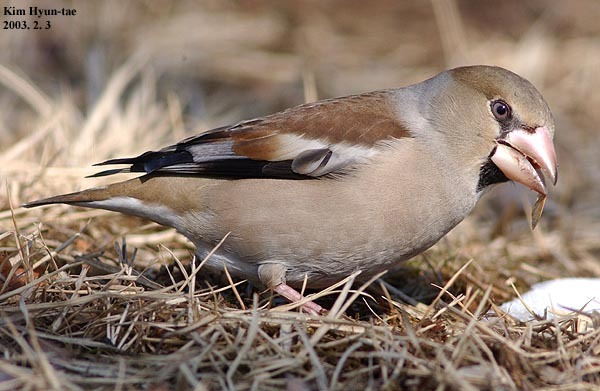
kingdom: Animalia
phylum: Chordata
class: Aves
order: Passeriformes
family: Fringillidae
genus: Coccothraustes
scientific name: Coccothraustes coccothraustes
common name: Hawfinch
